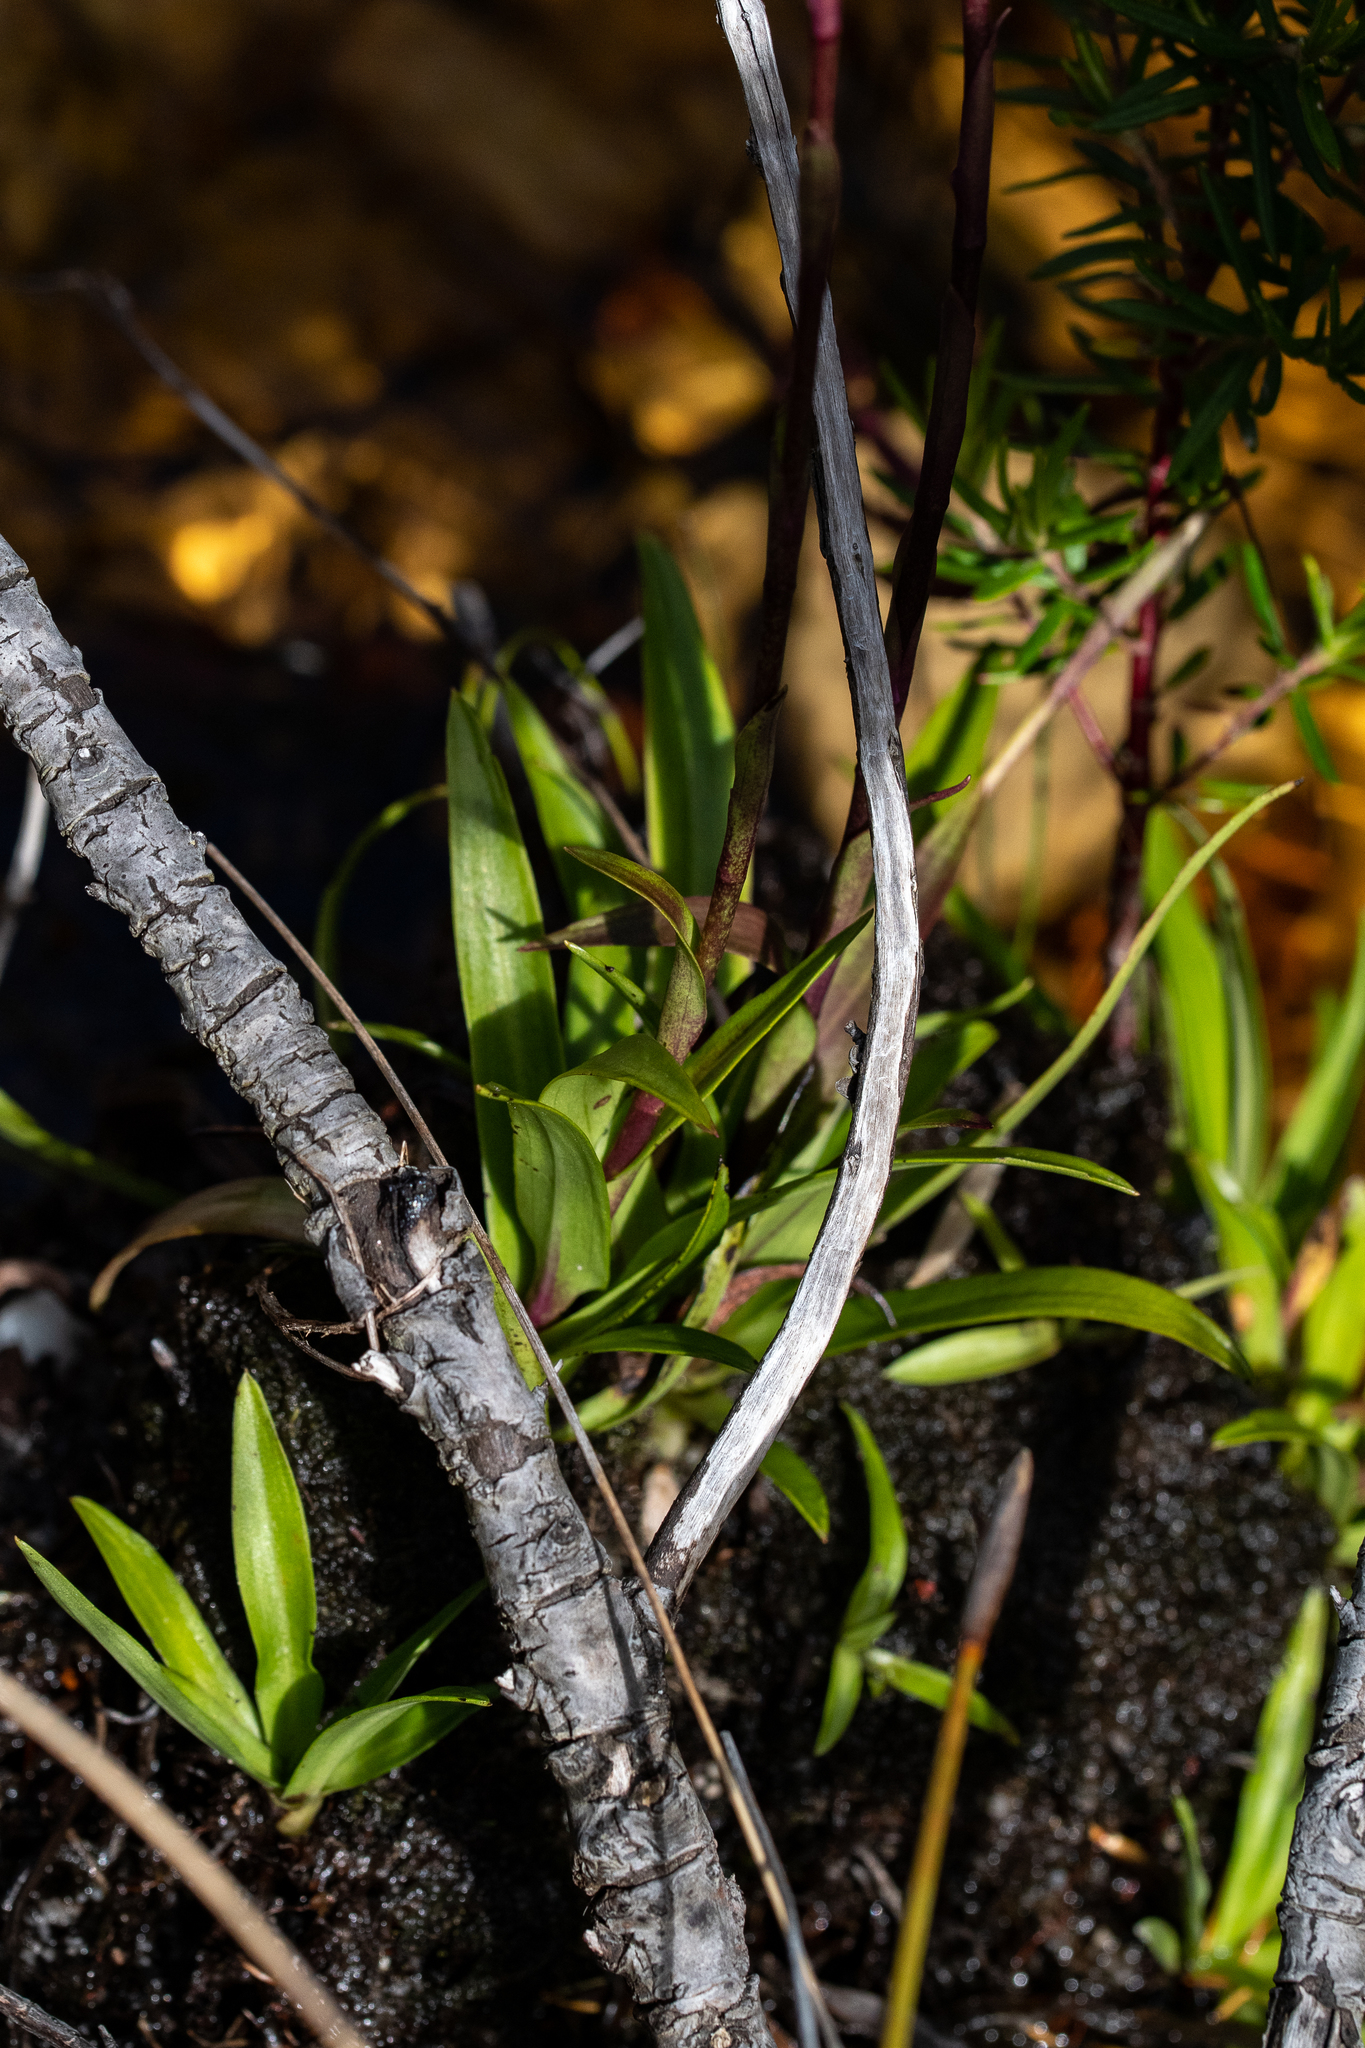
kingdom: Plantae
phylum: Tracheophyta
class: Liliopsida
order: Asparagales
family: Orchidaceae
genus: Disa
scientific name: Disa tripetaloides
